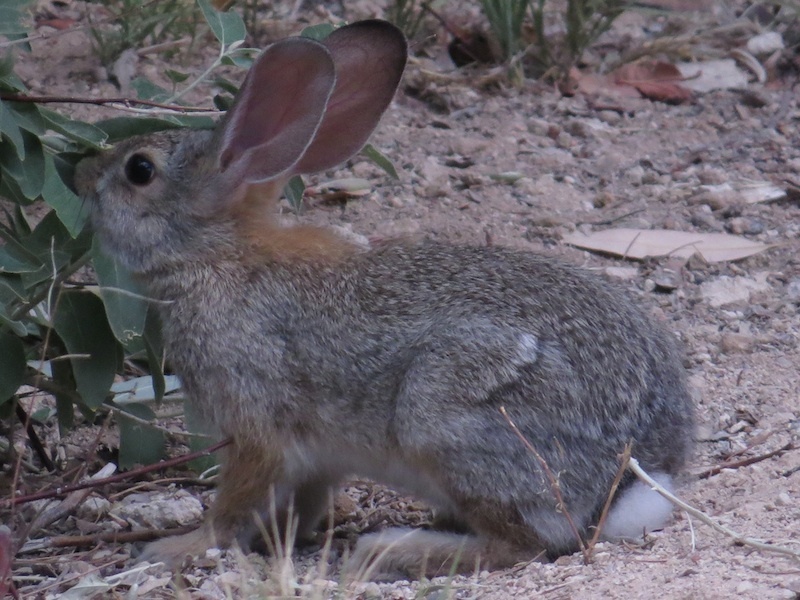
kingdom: Animalia
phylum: Chordata
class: Mammalia
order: Lagomorpha
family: Leporidae
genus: Sylvilagus
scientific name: Sylvilagus audubonii
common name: Desert cottontail
